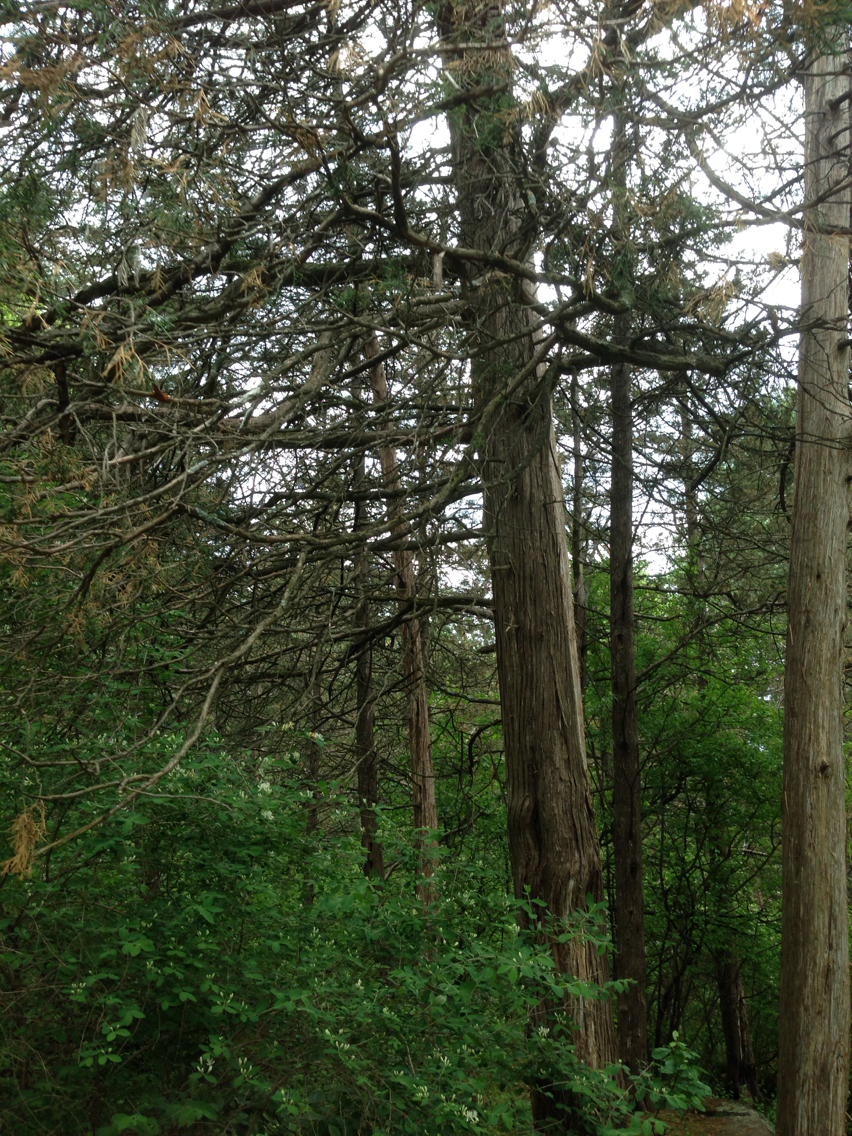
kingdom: Plantae
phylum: Tracheophyta
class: Pinopsida
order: Pinales
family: Cupressaceae
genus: Juniperus
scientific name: Juniperus virginiana
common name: Red juniper
